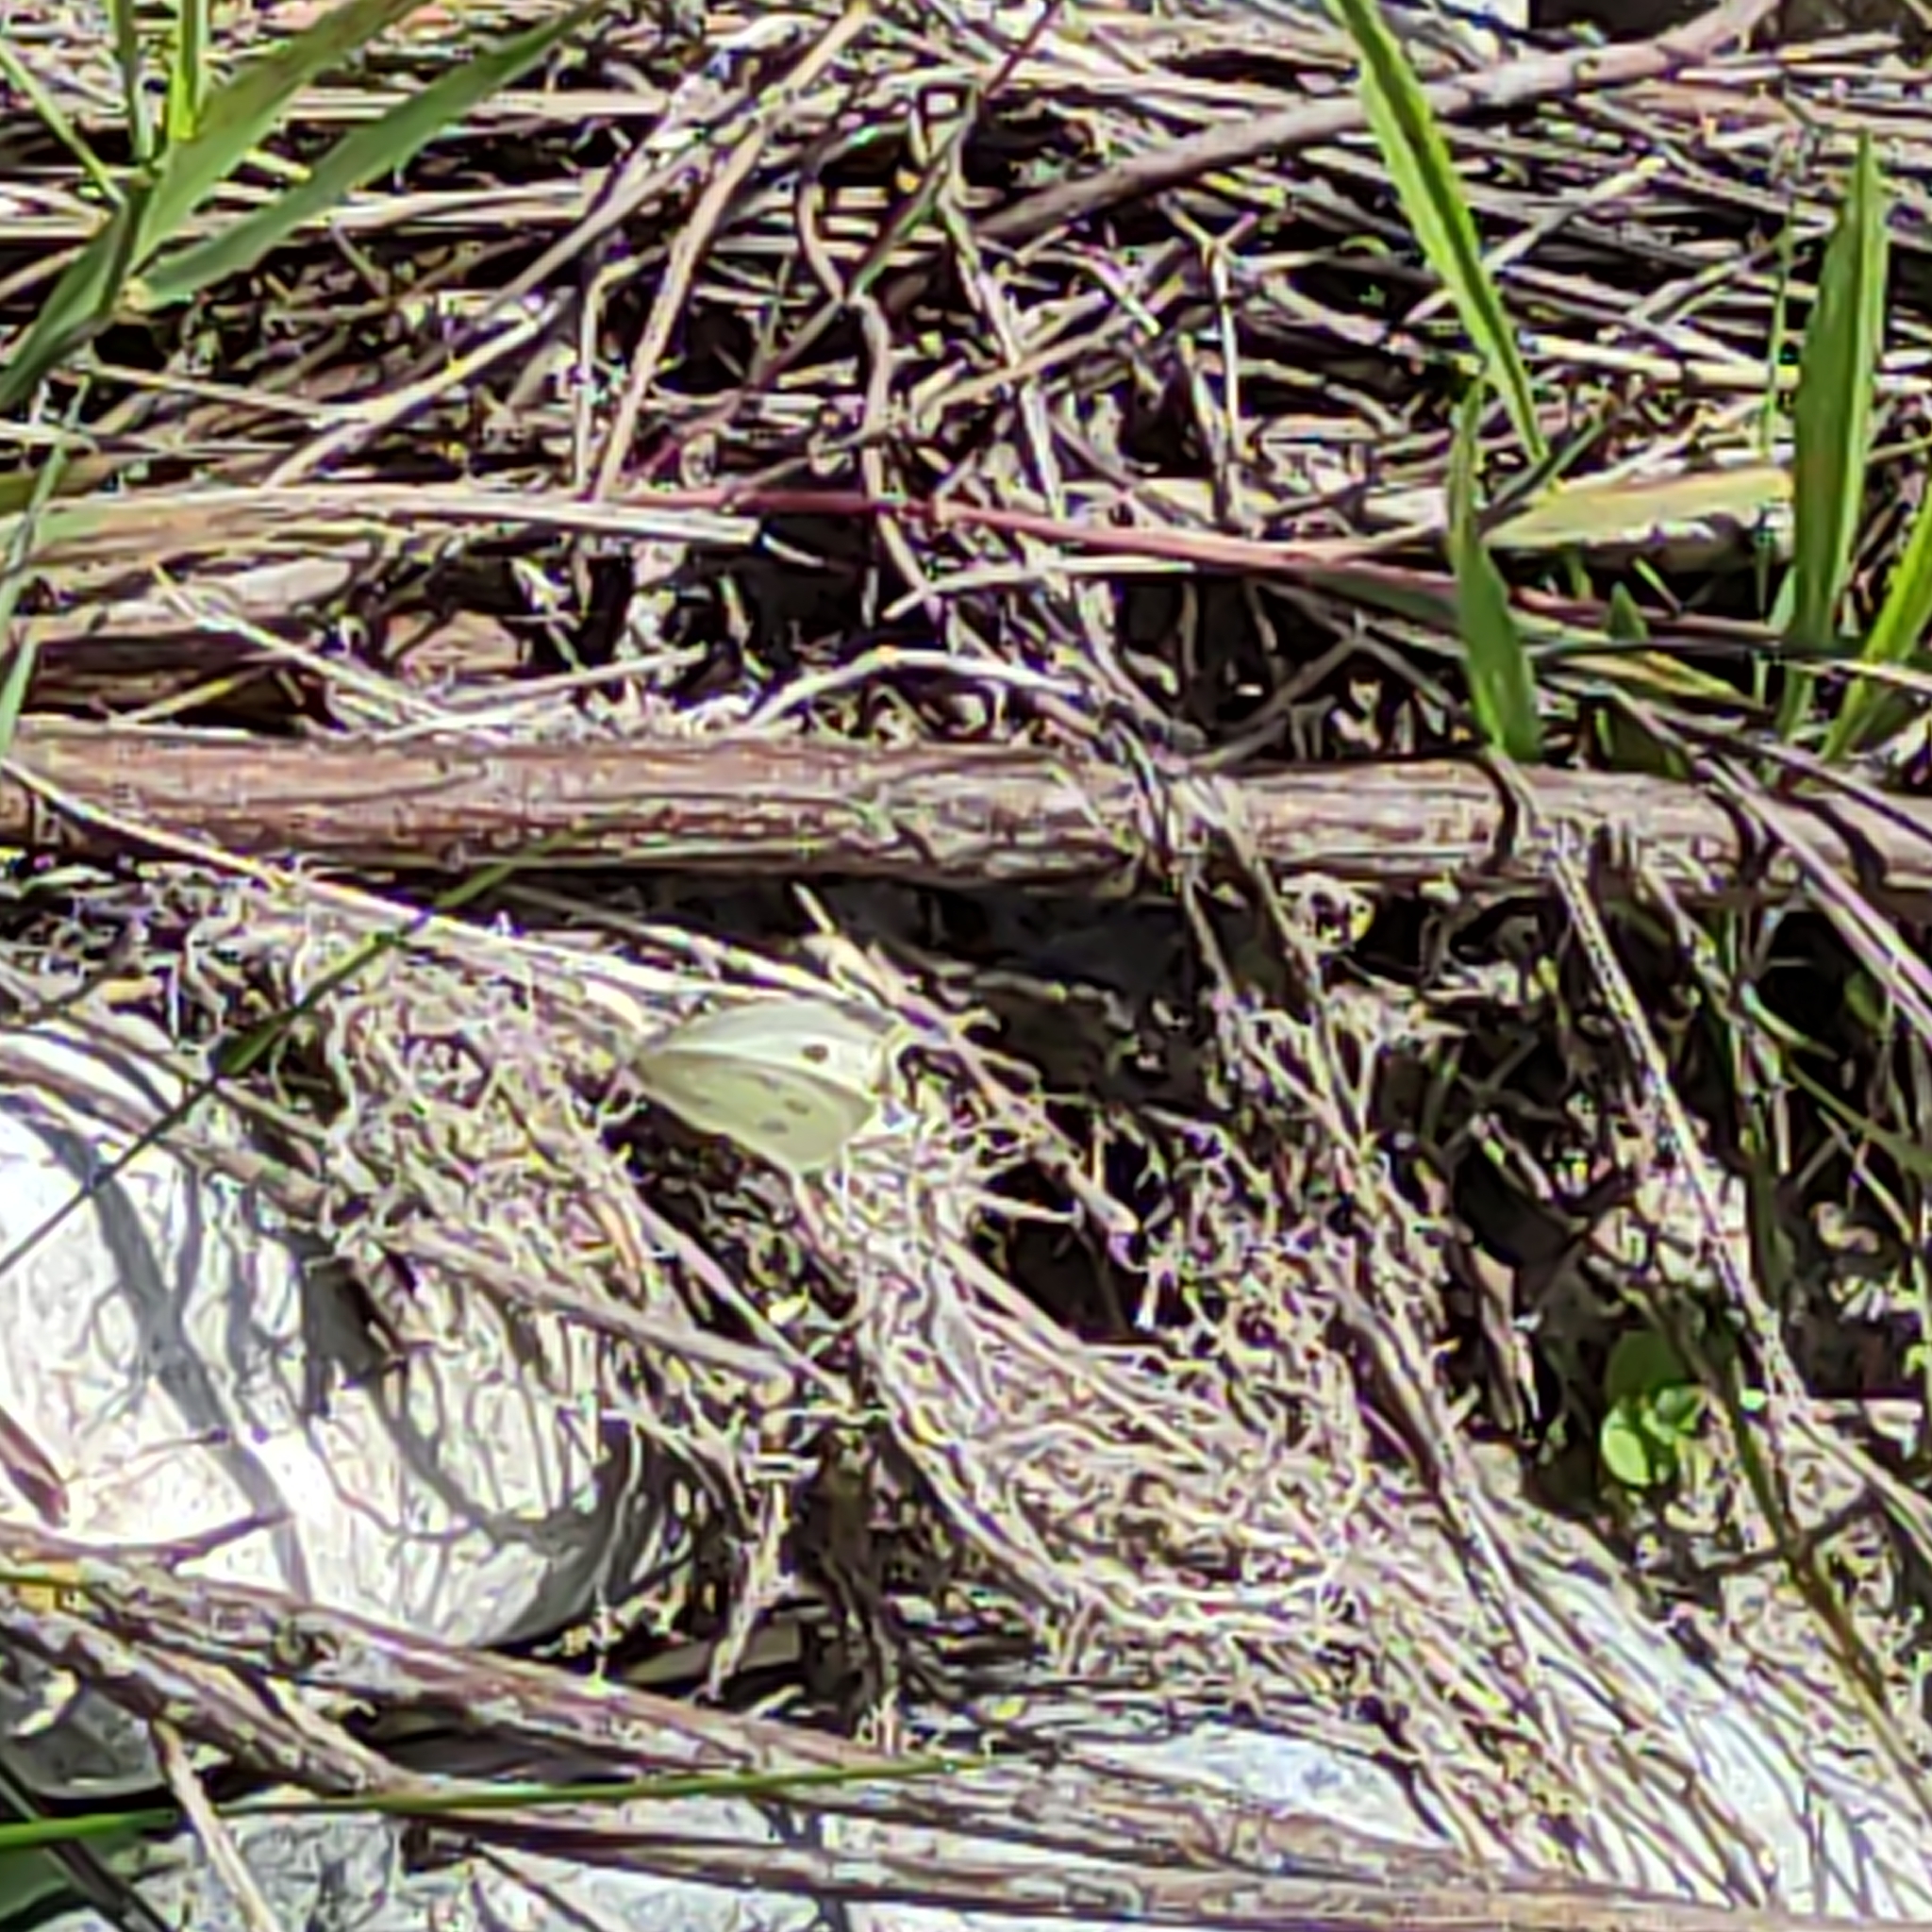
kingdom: Animalia
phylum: Arthropoda
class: Insecta
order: Lepidoptera
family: Pieridae
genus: Pieris
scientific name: Pieris rapae
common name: Small white
